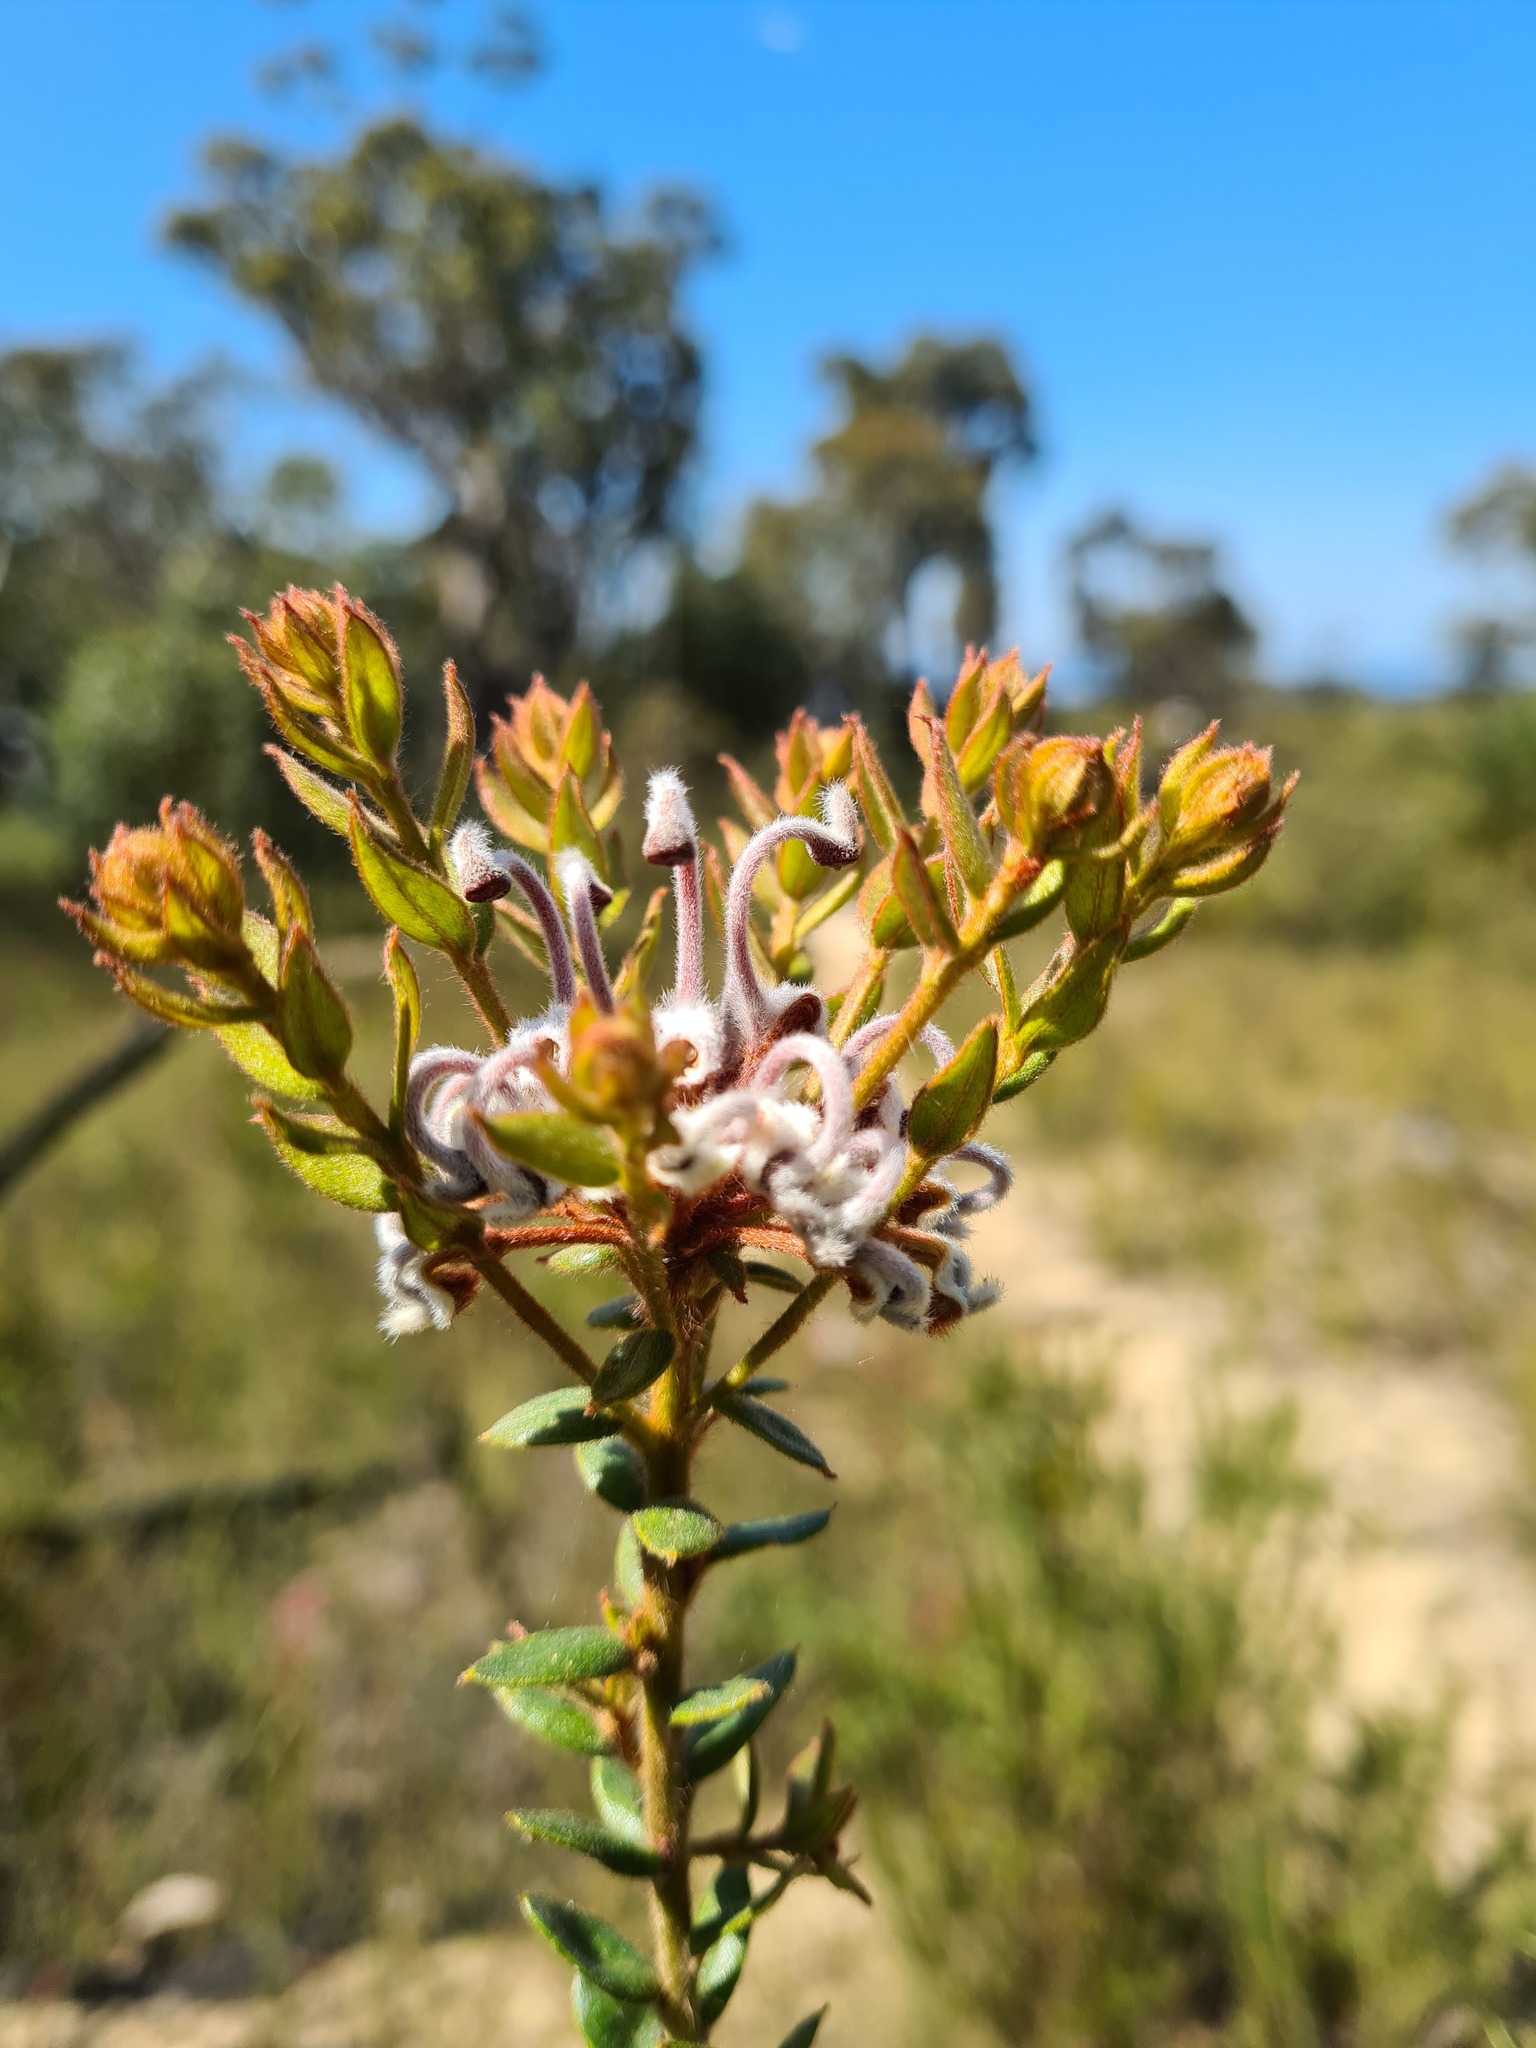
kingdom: Plantae
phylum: Tracheophyta
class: Magnoliopsida
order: Proteales
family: Proteaceae
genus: Grevillea
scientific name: Grevillea buxifolia
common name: Grey spiderflower
